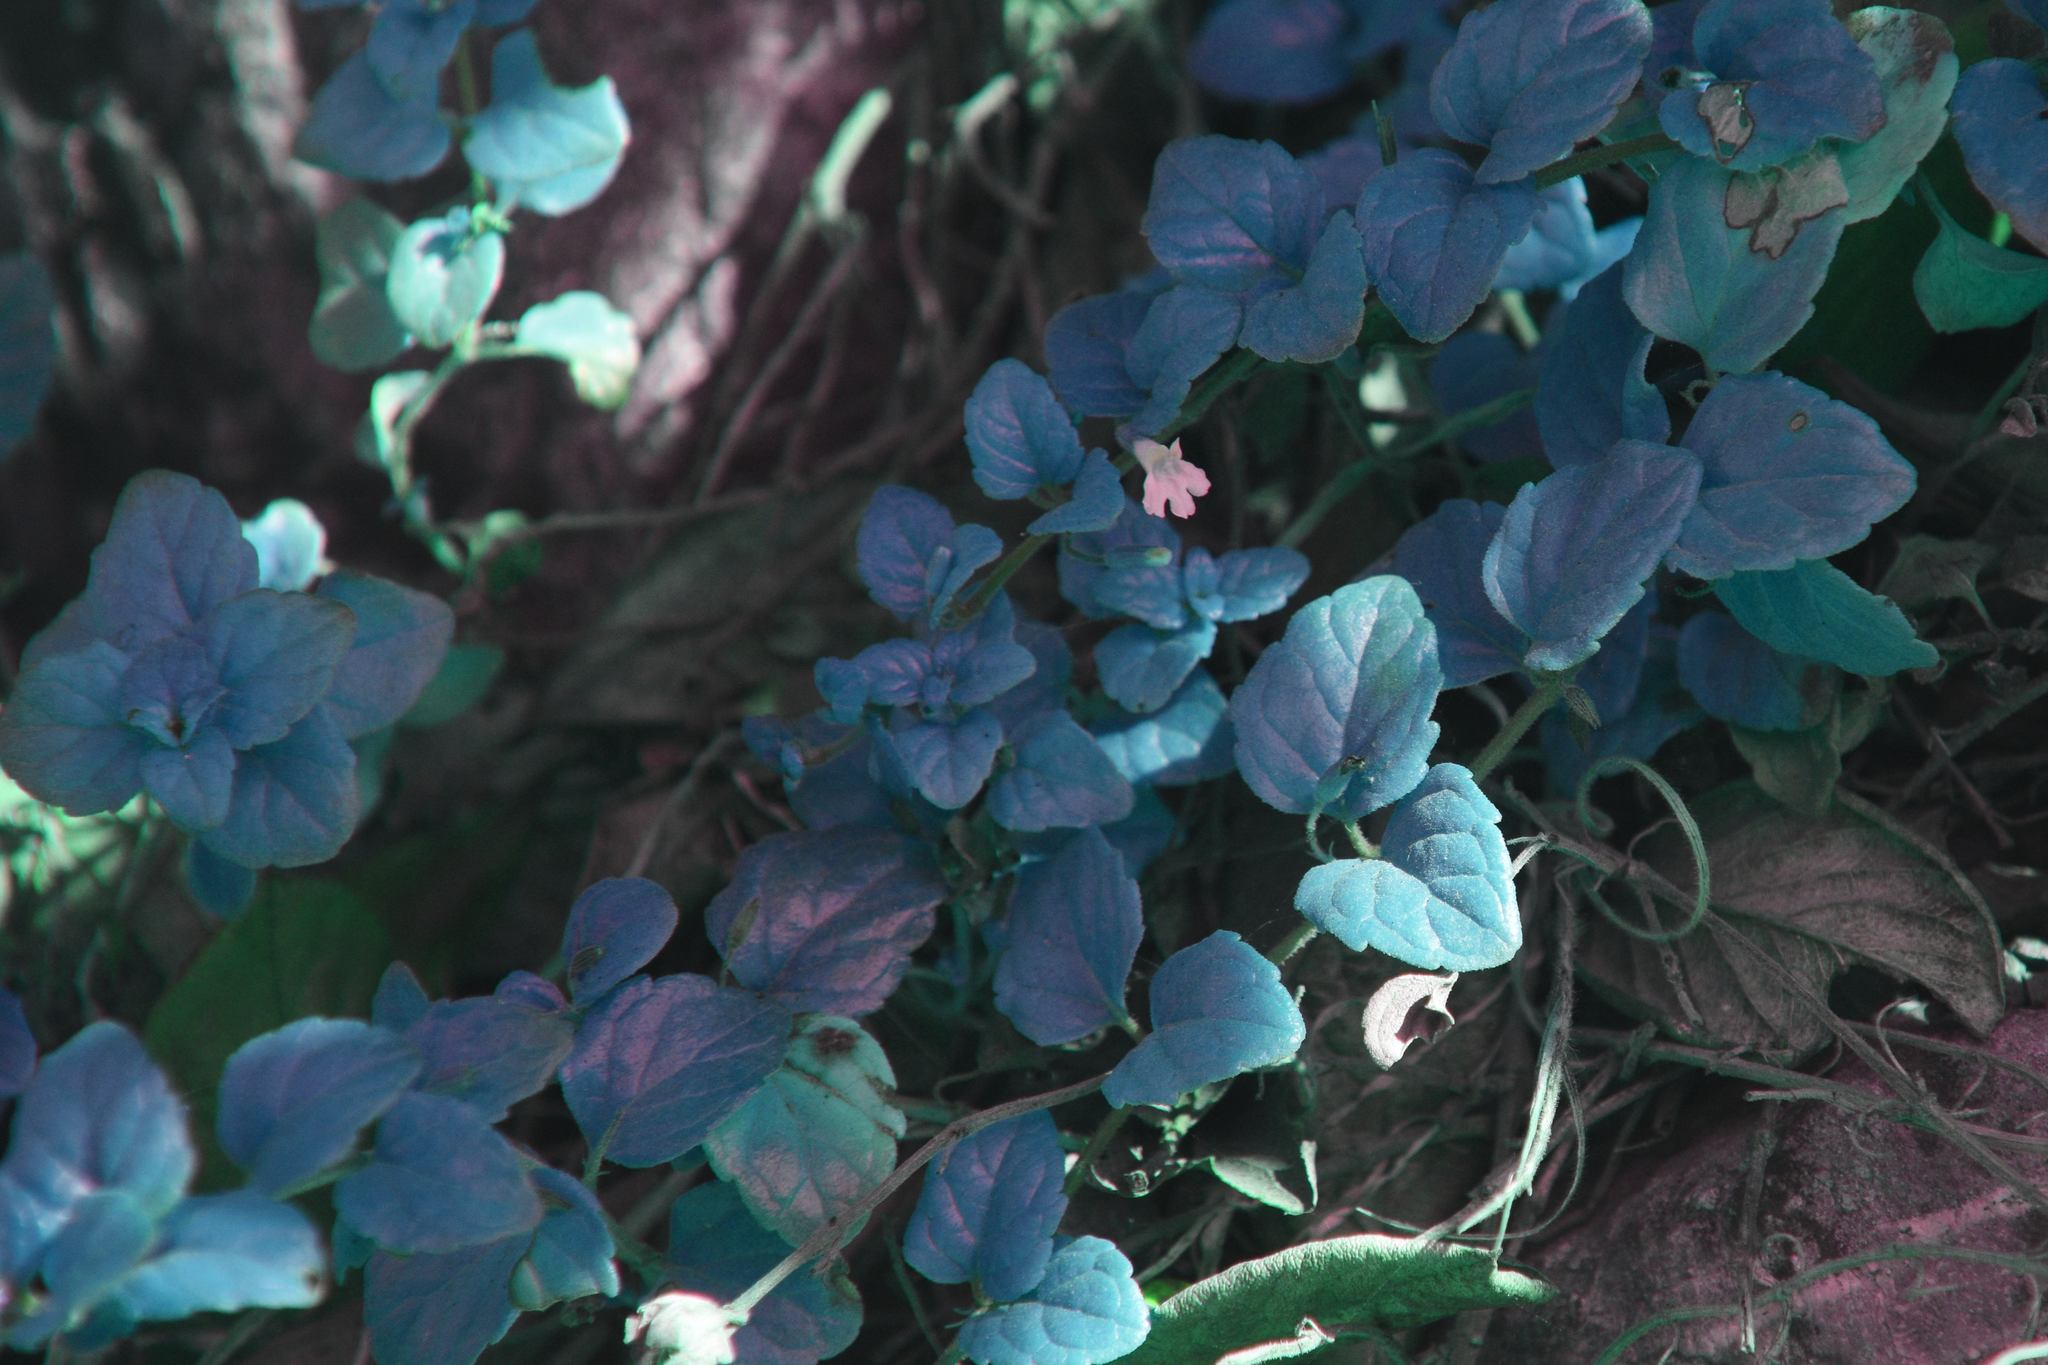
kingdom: Plantae
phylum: Tracheophyta
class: Magnoliopsida
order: Lamiales
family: Lamiaceae
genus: Micromeria
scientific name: Micromeria douglasii
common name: Yerba buena
